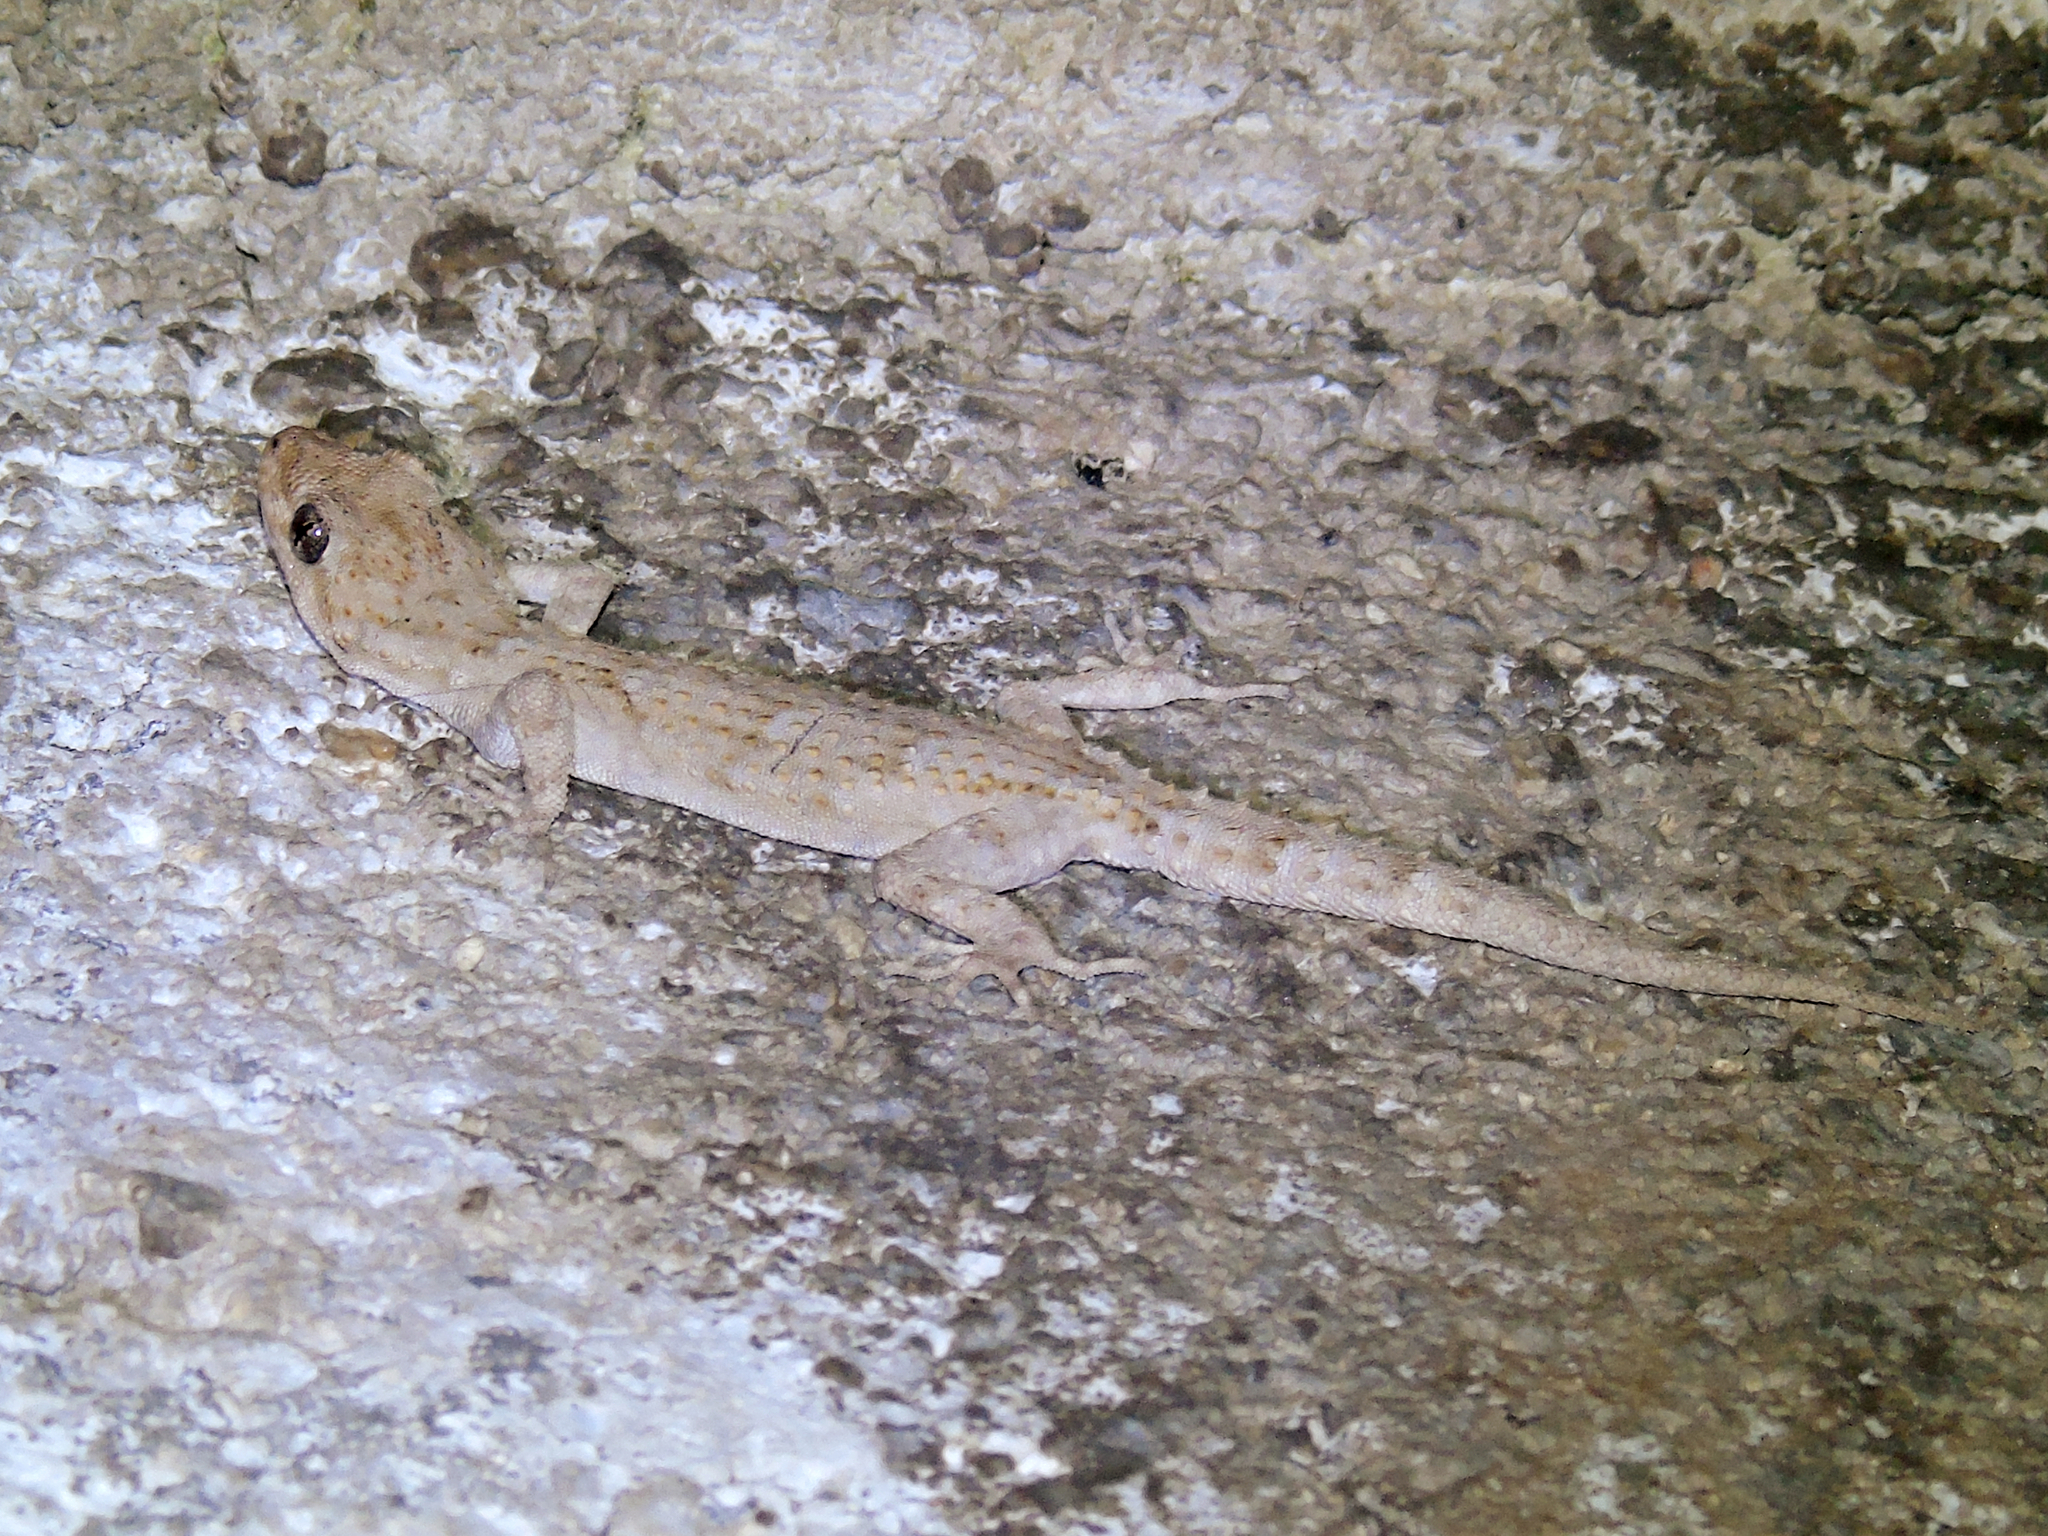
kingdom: Animalia
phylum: Chordata
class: Squamata
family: Gekkonidae
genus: Mediodactylus
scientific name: Mediodactylus kotschyi
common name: Kotschy's gecko
